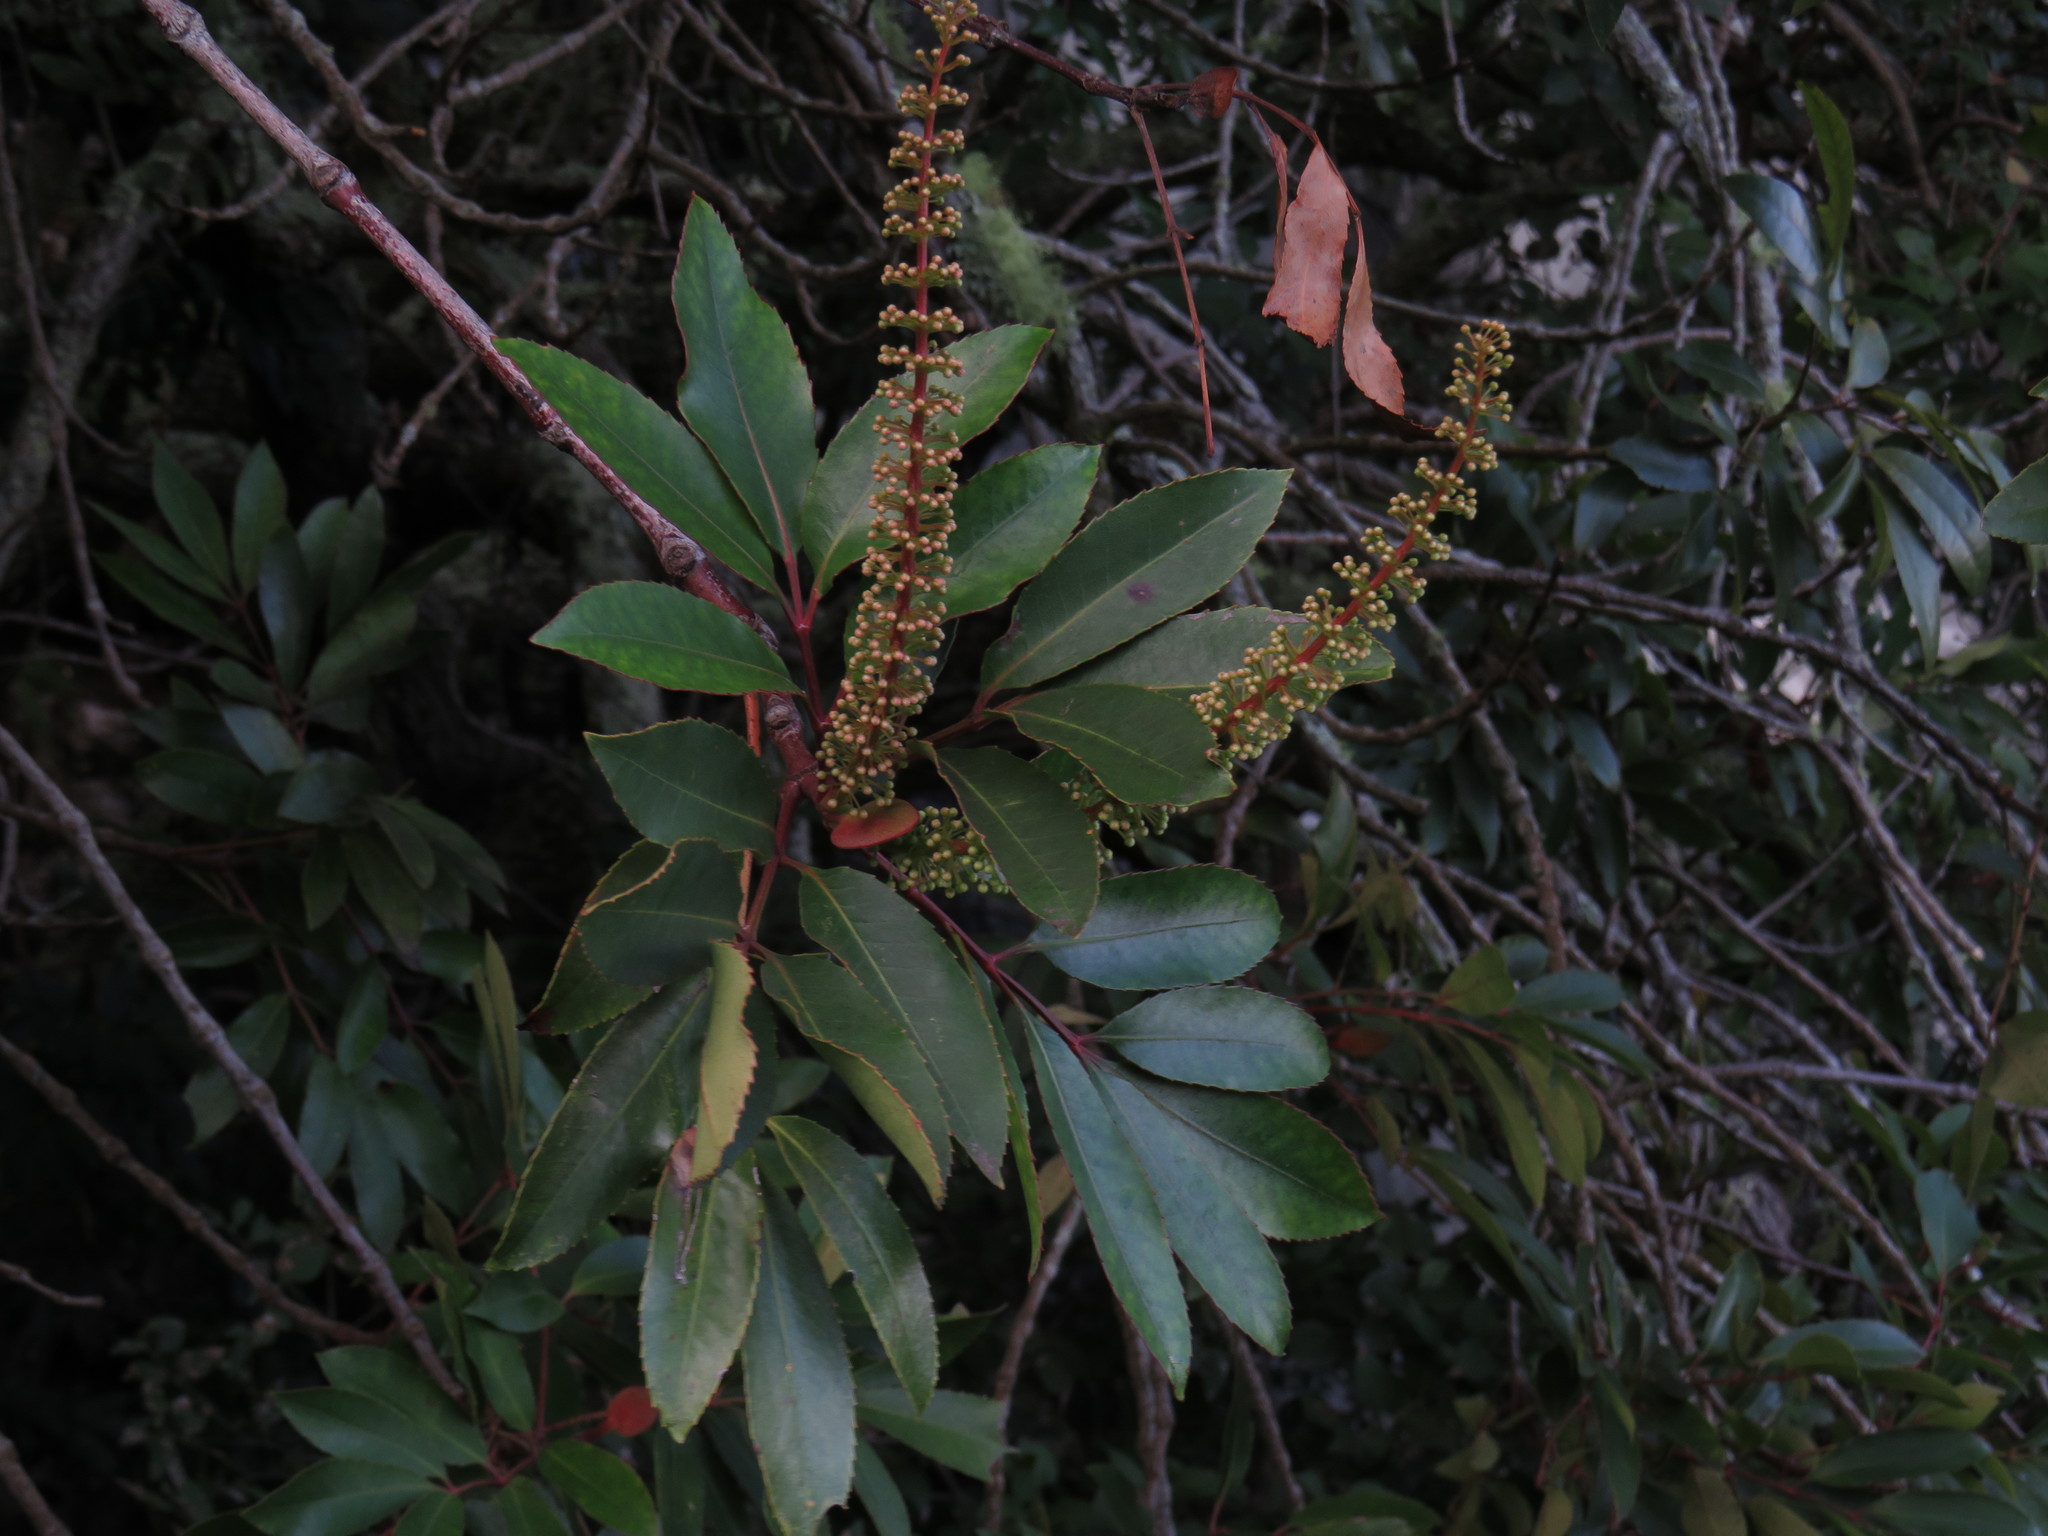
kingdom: Plantae
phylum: Tracheophyta
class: Magnoliopsida
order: Oxalidales
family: Cunoniaceae
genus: Cunonia
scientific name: Cunonia capensis
